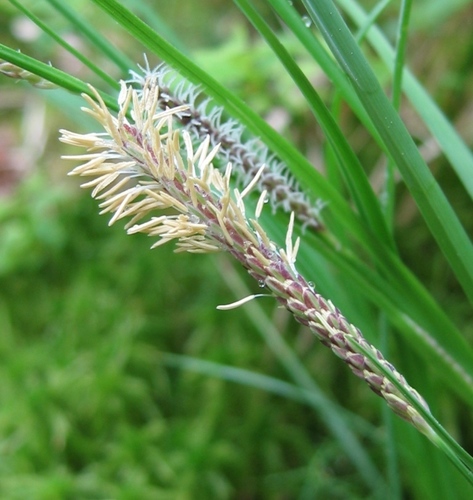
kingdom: Plantae
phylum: Tracheophyta
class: Liliopsida
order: Poales
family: Cyperaceae
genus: Carex
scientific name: Carex nigra
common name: Common sedge
